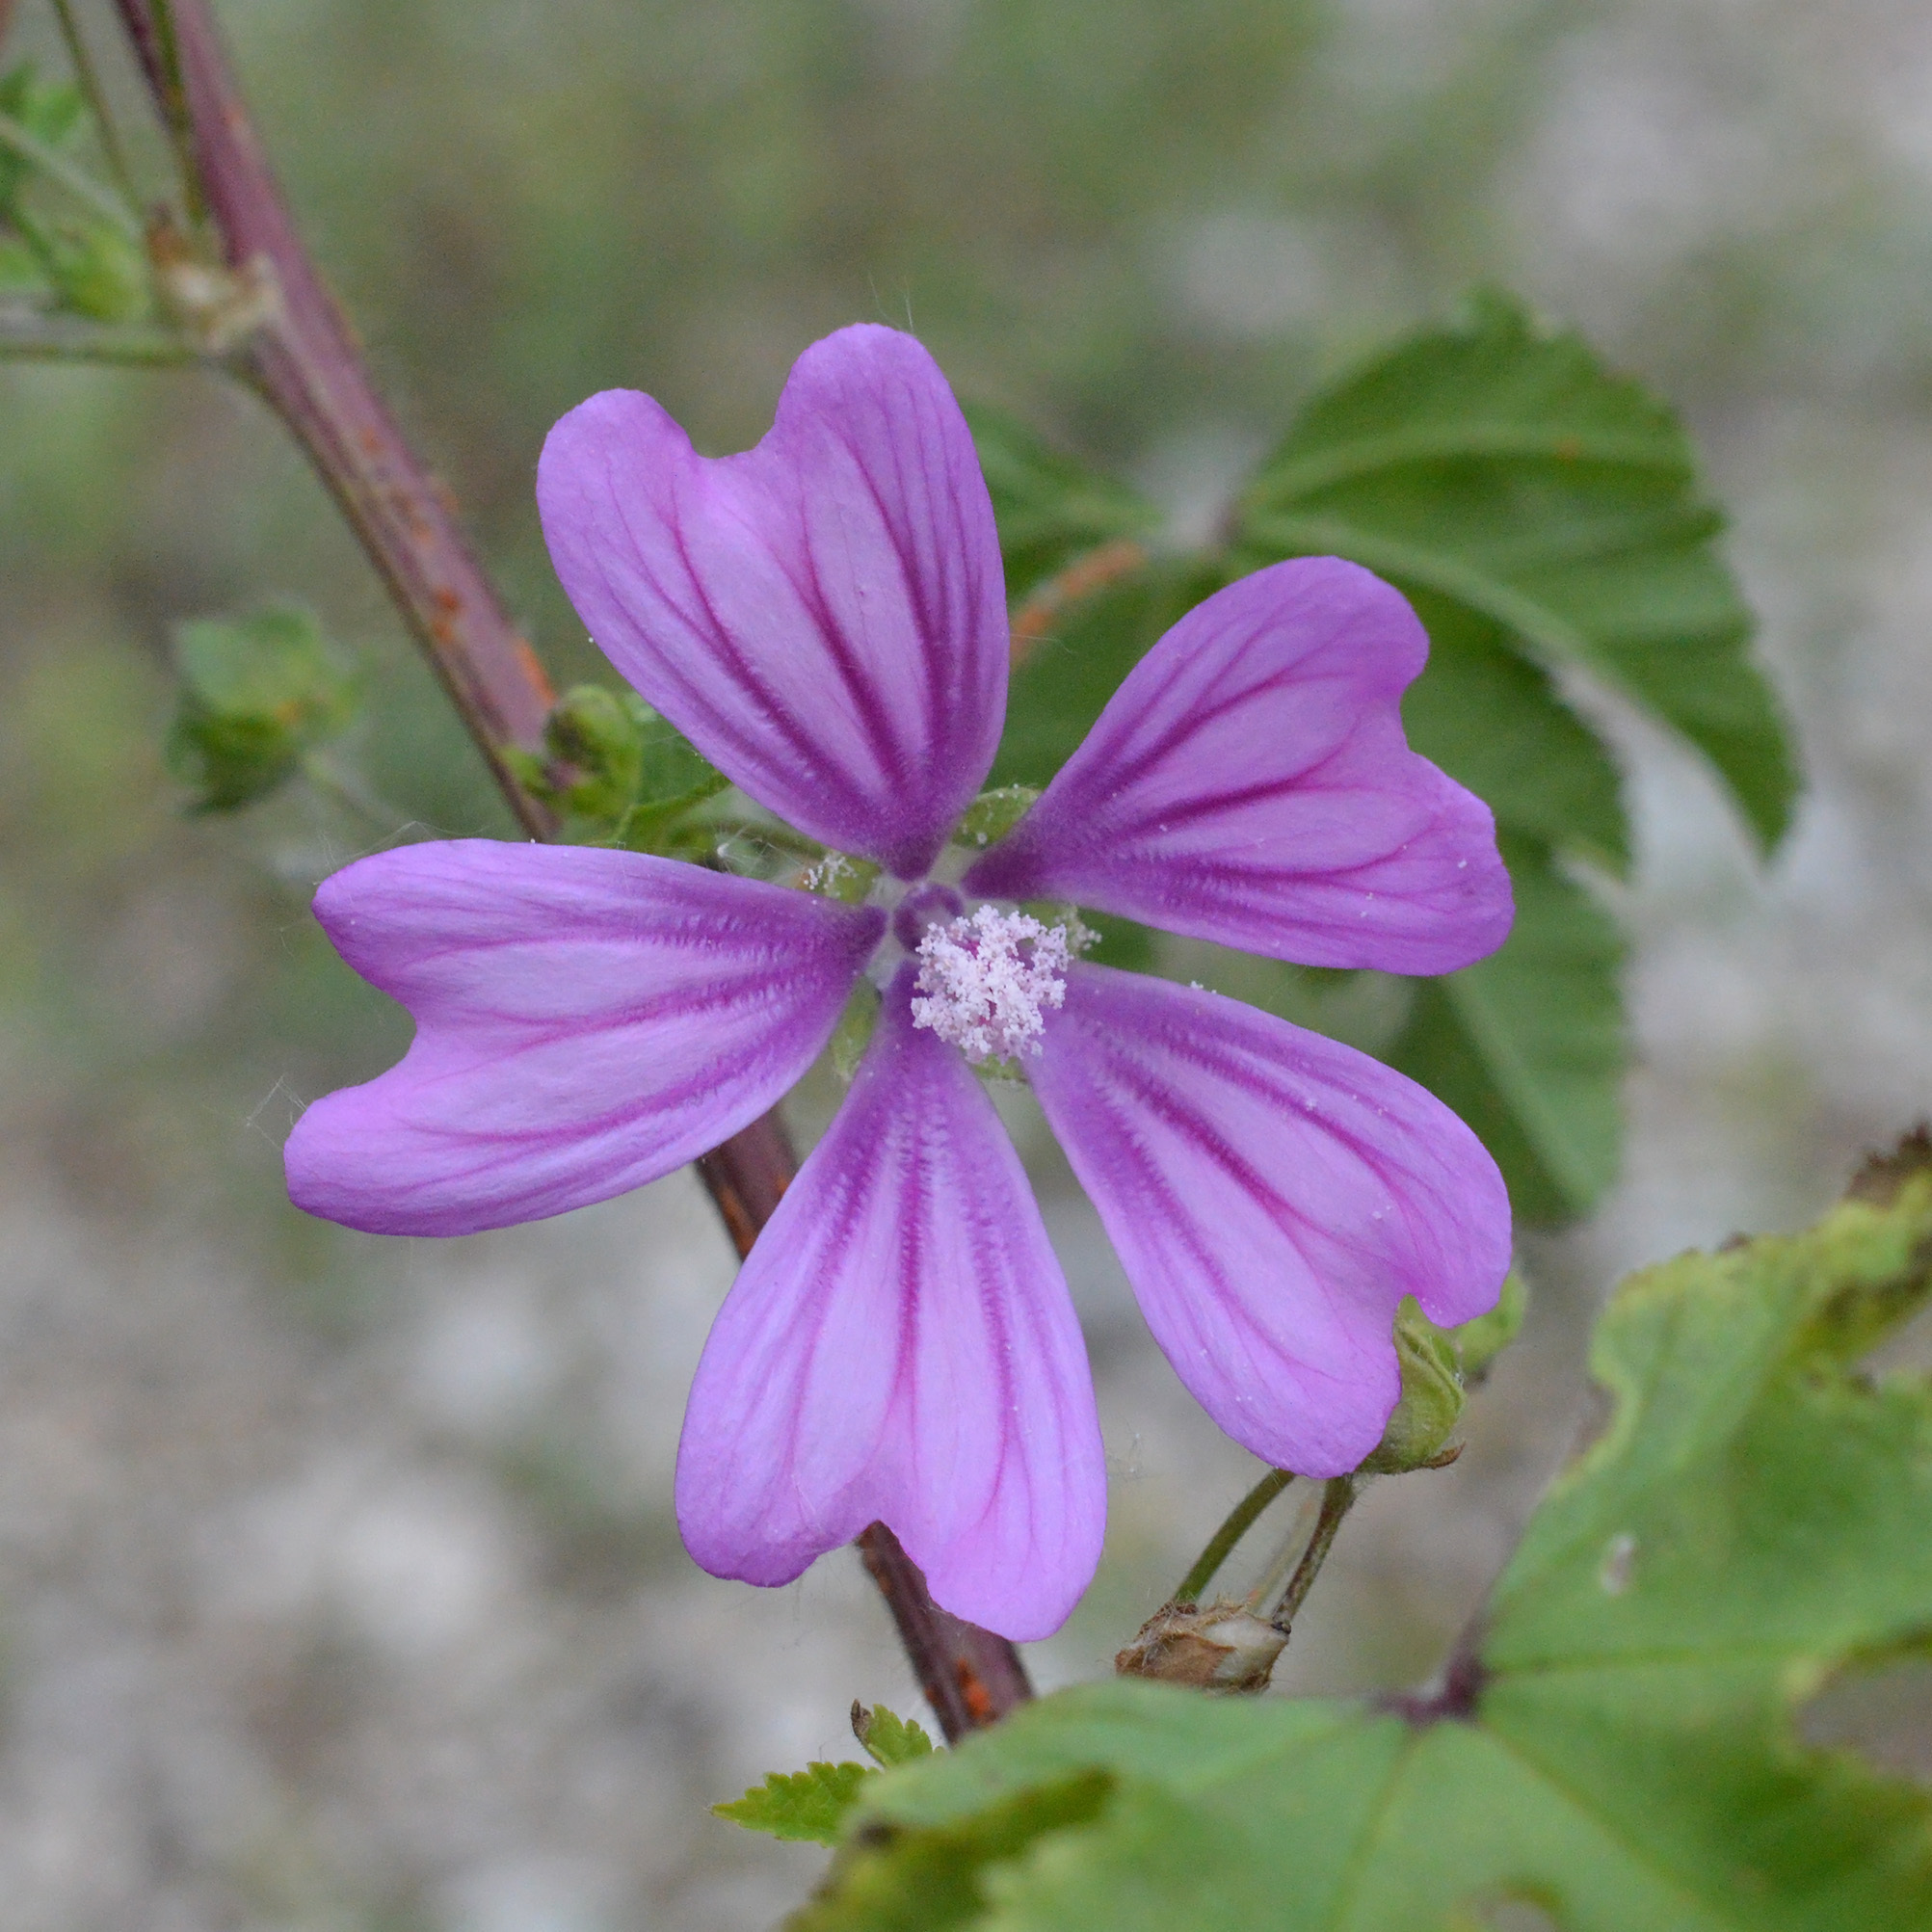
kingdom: Plantae
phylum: Tracheophyta
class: Magnoliopsida
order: Malvales
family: Malvaceae
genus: Malva
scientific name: Malva sylvestris
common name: Common mallow
